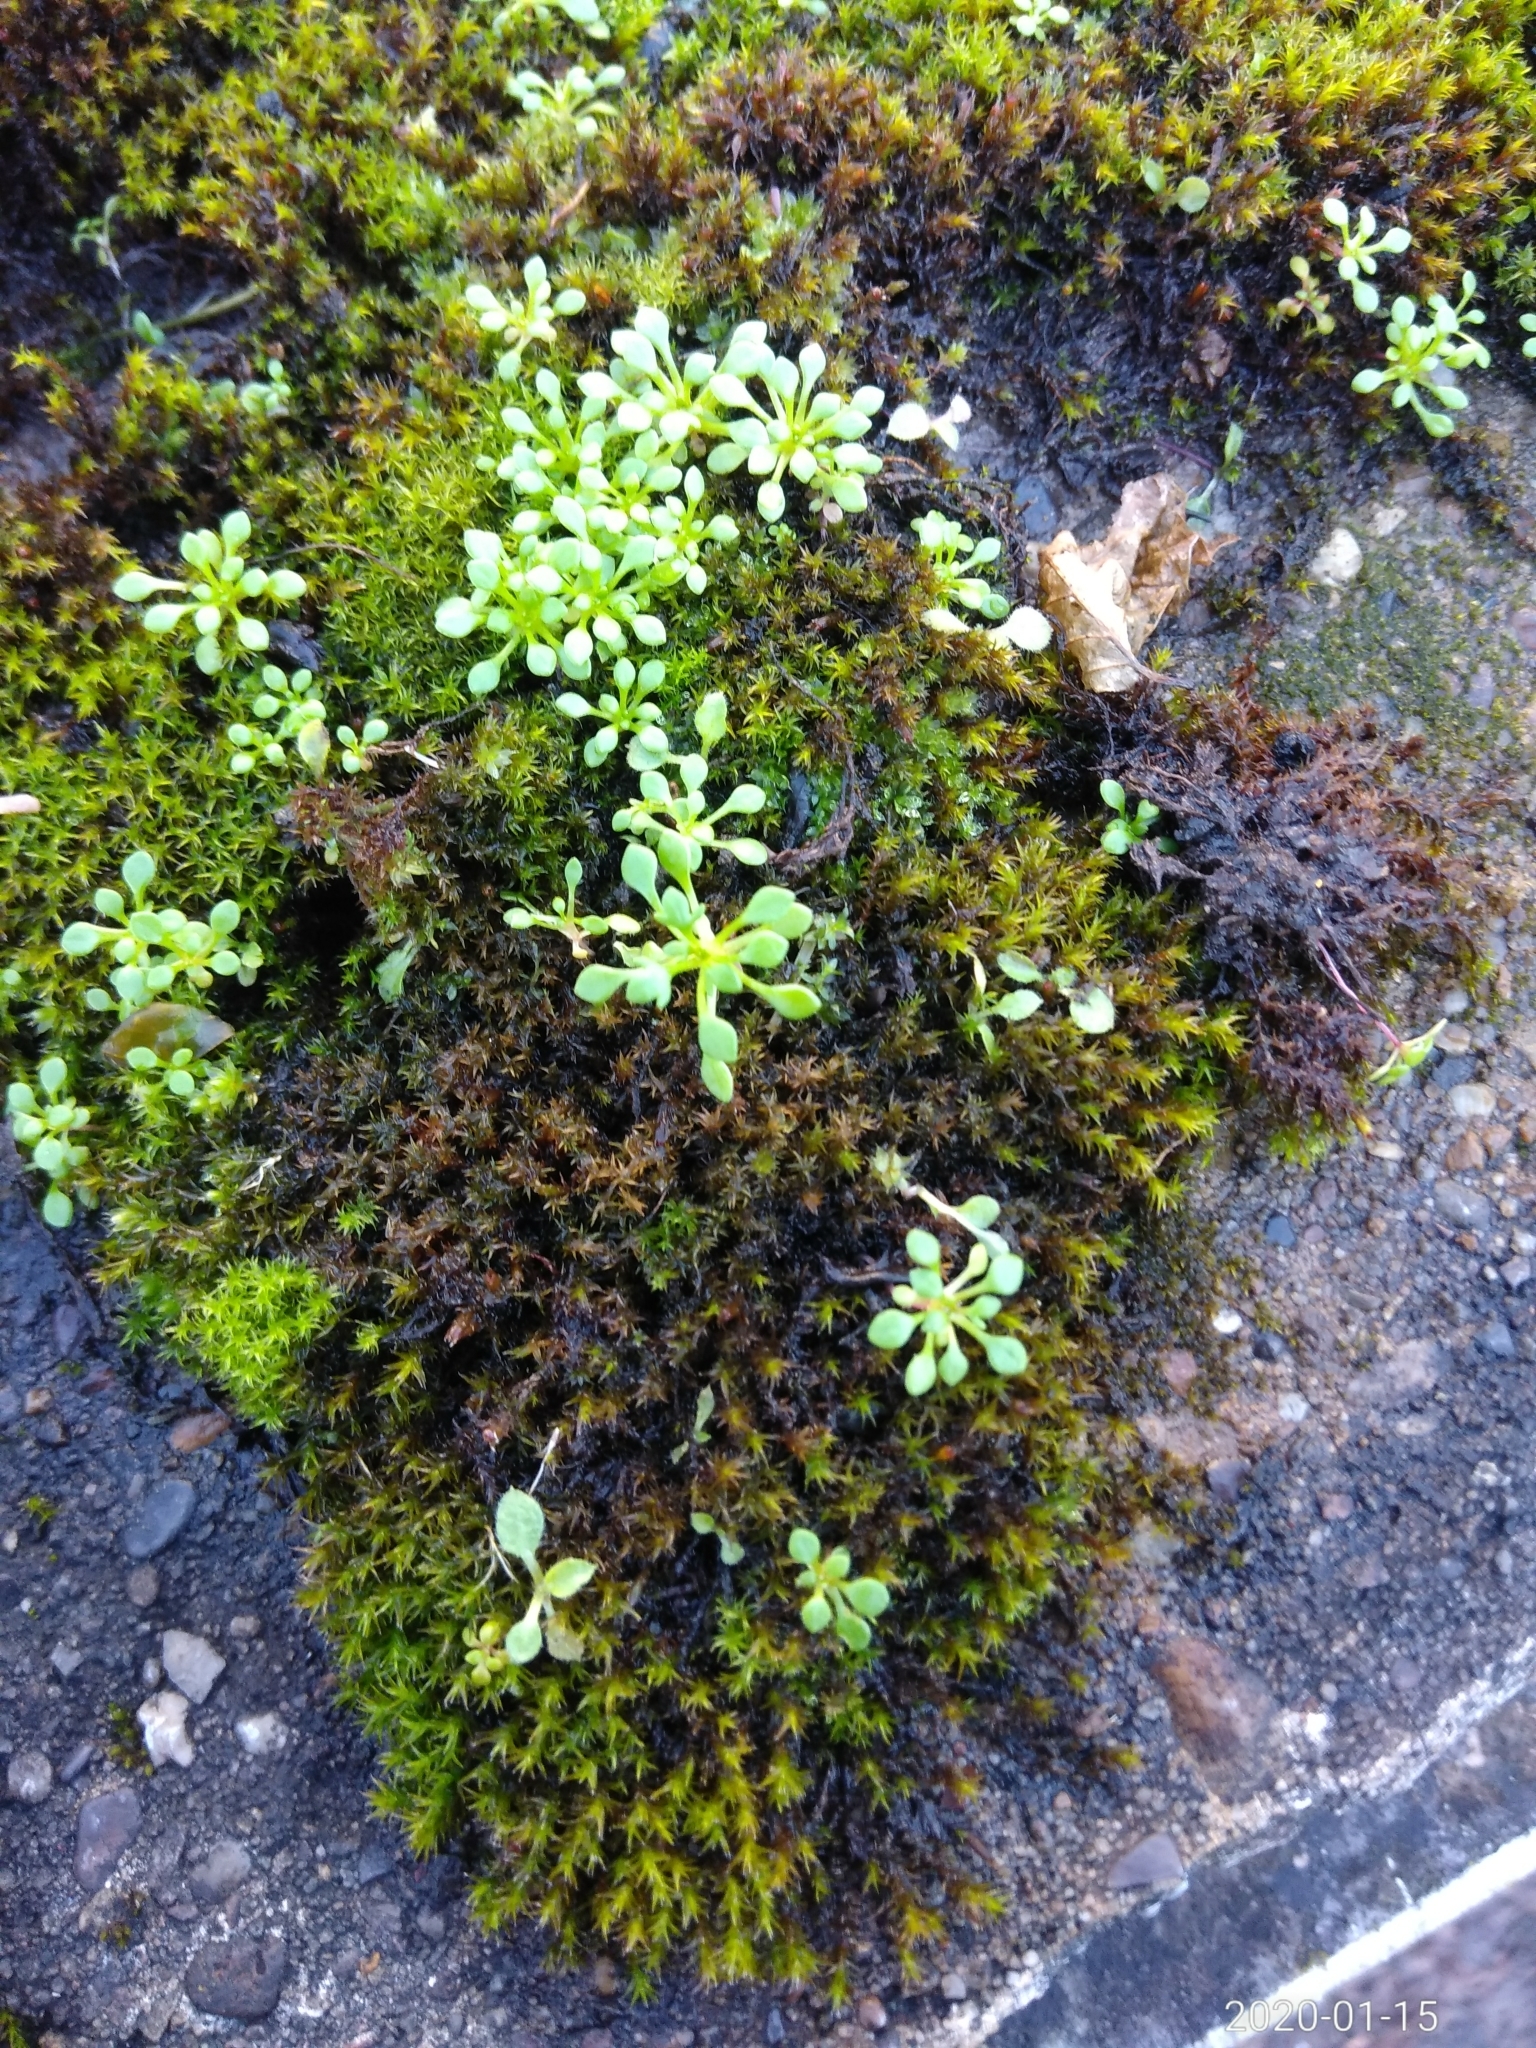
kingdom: Plantae
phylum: Tracheophyta
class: Magnoliopsida
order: Saxifragales
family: Saxifragaceae
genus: Saxifraga
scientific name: Saxifraga tridactylites
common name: Rue-leaved saxifrage
